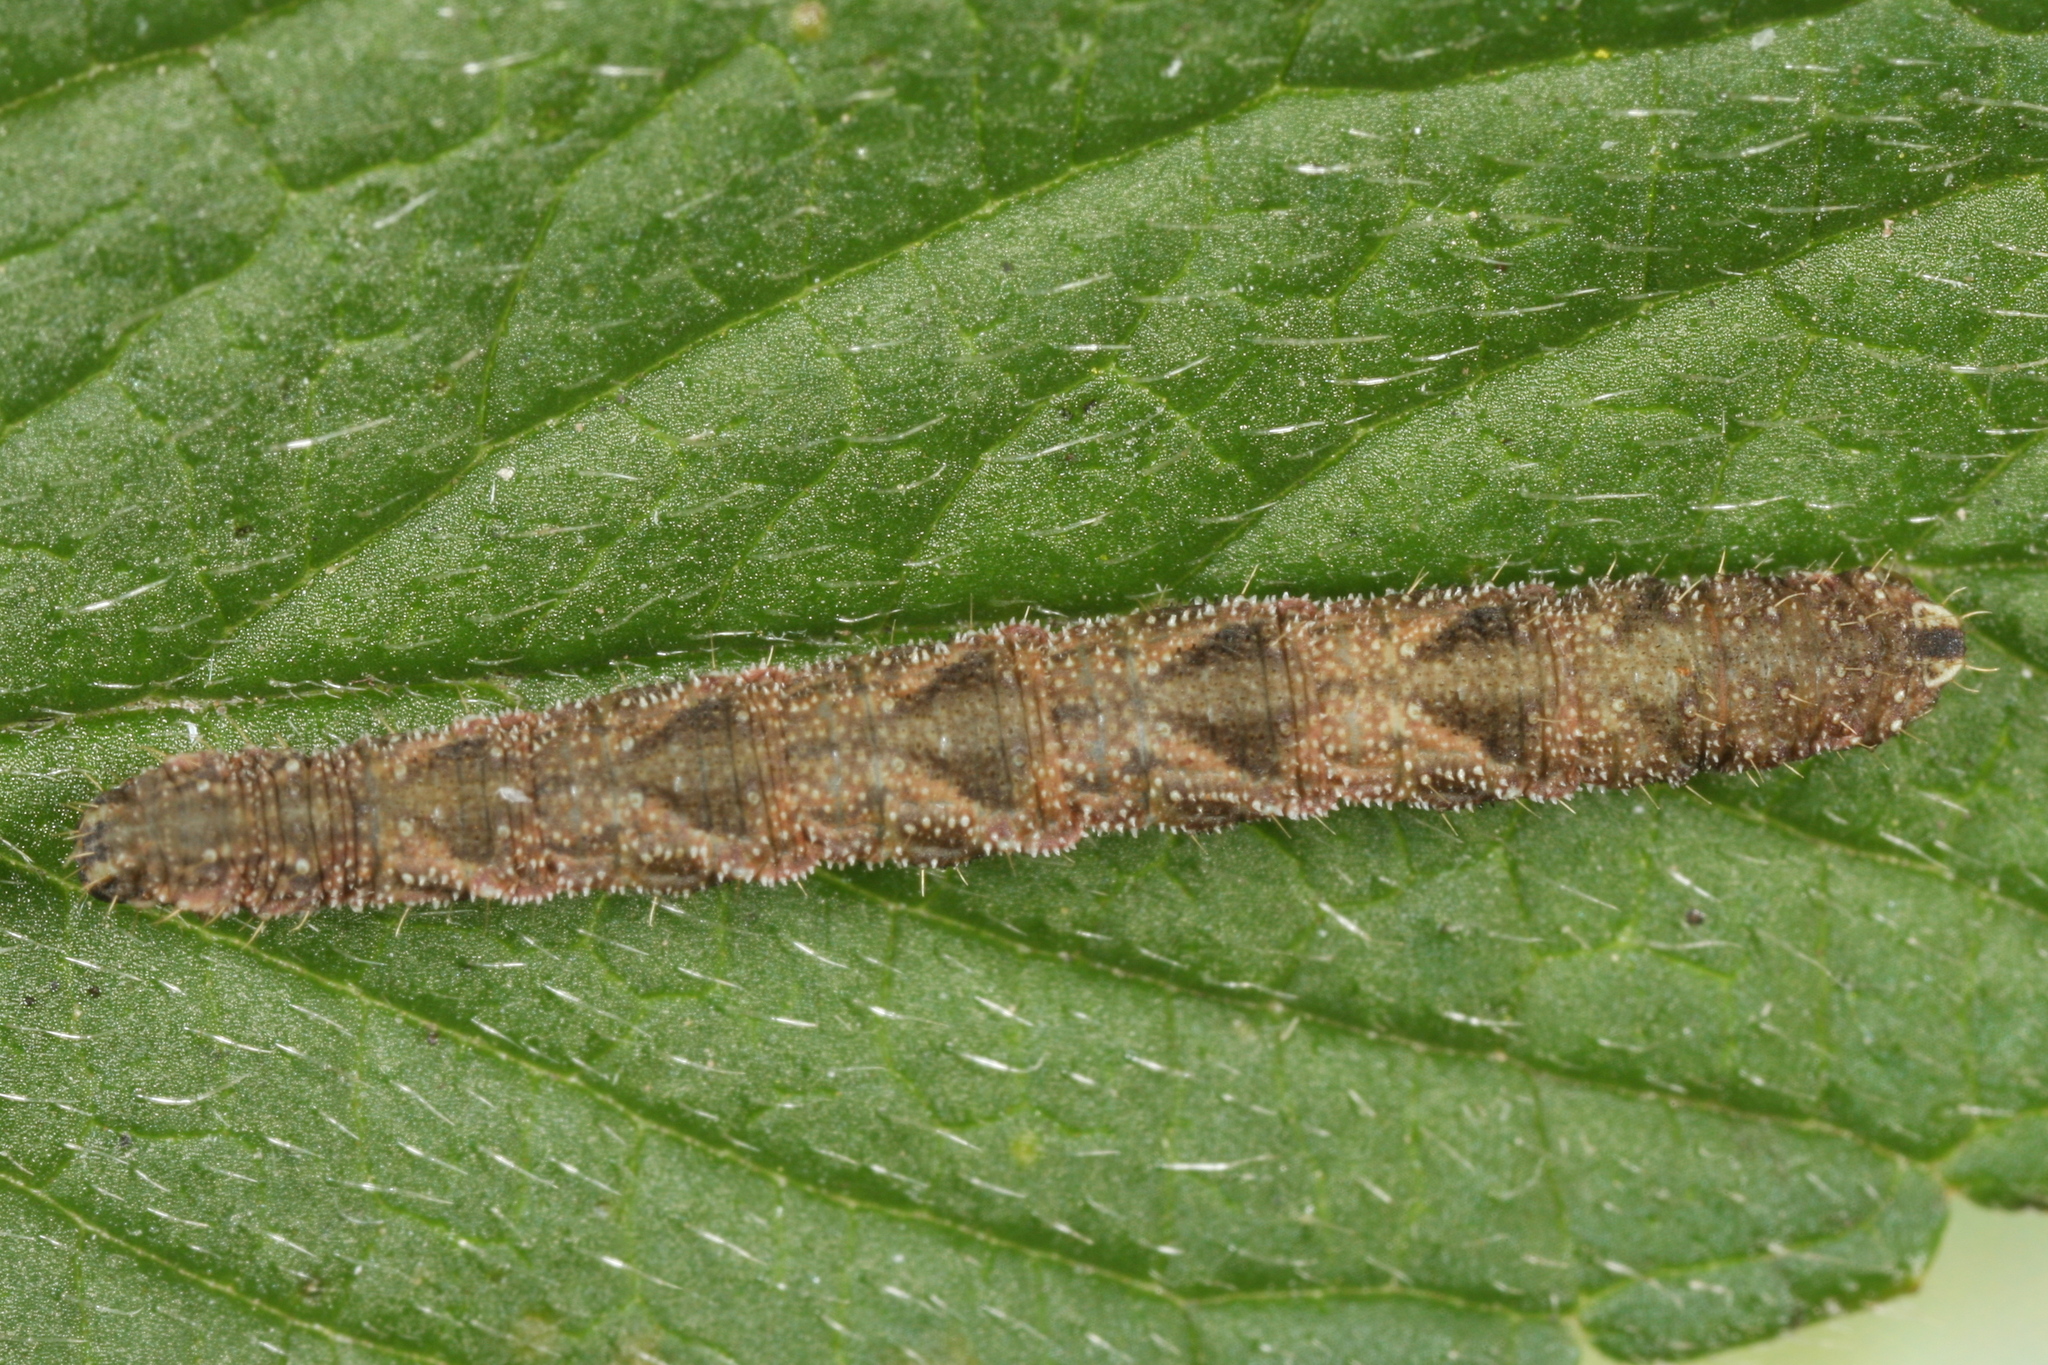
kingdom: Animalia
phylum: Arthropoda
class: Insecta
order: Lepidoptera
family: Geometridae
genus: Eupithecia
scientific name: Eupithecia subfuscata
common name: Grey pug
